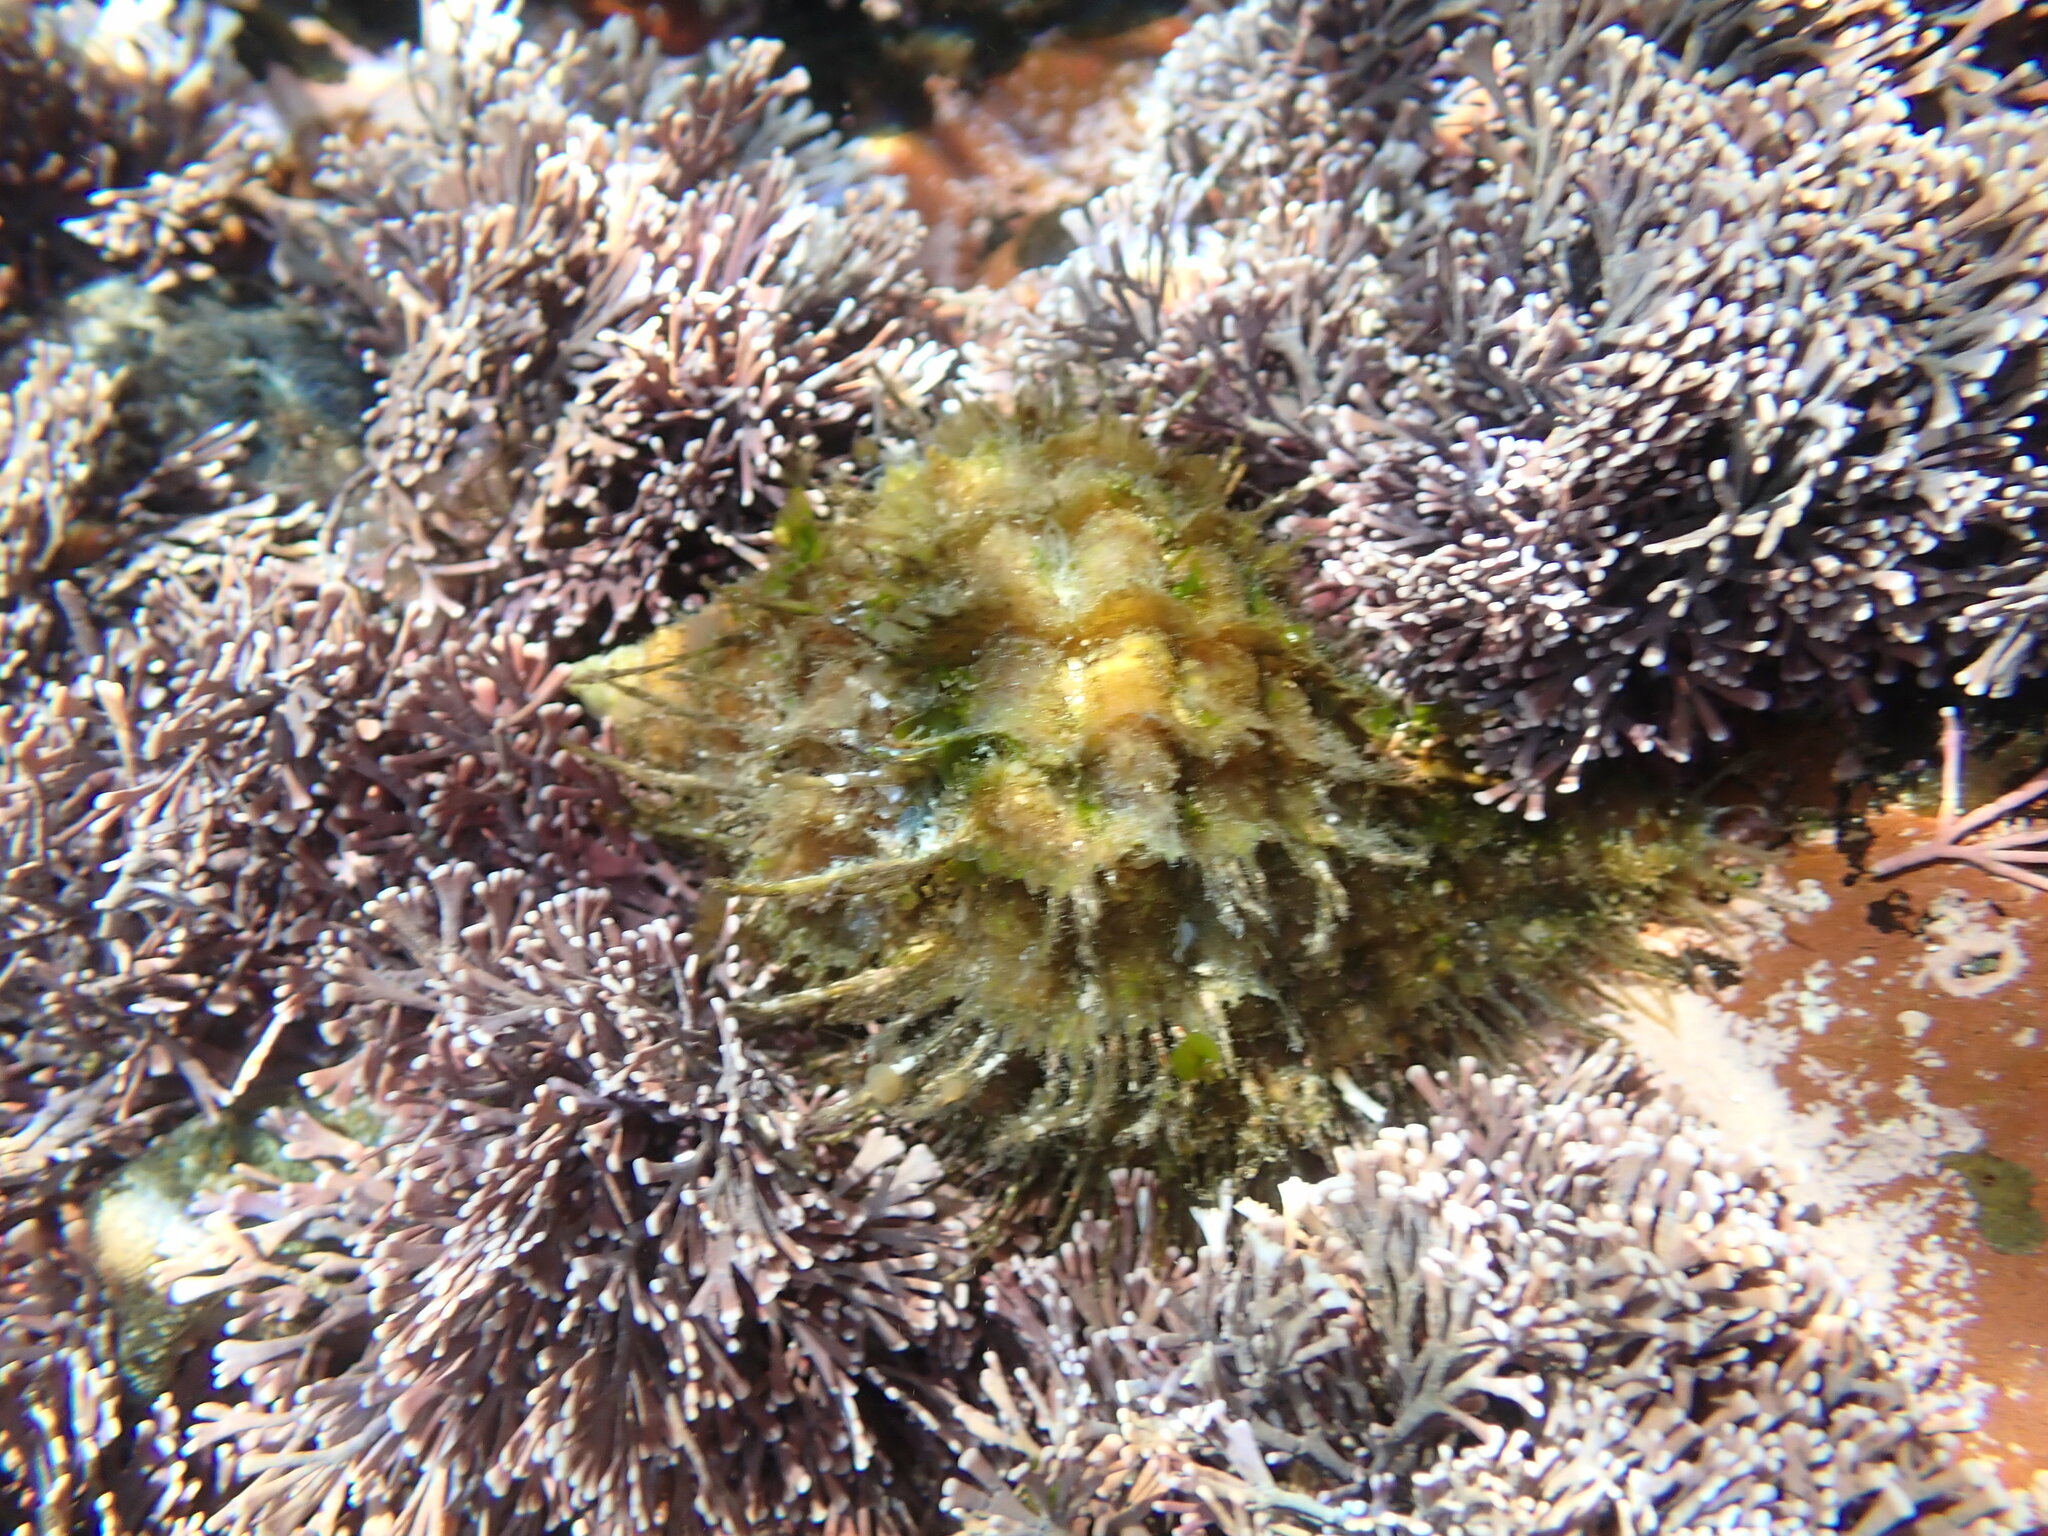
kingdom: Animalia
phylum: Mollusca
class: Gastropoda
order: Littorinimorpha
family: Cymatiidae
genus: Monoplex
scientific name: Monoplex parthenopeus
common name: Giant triton
